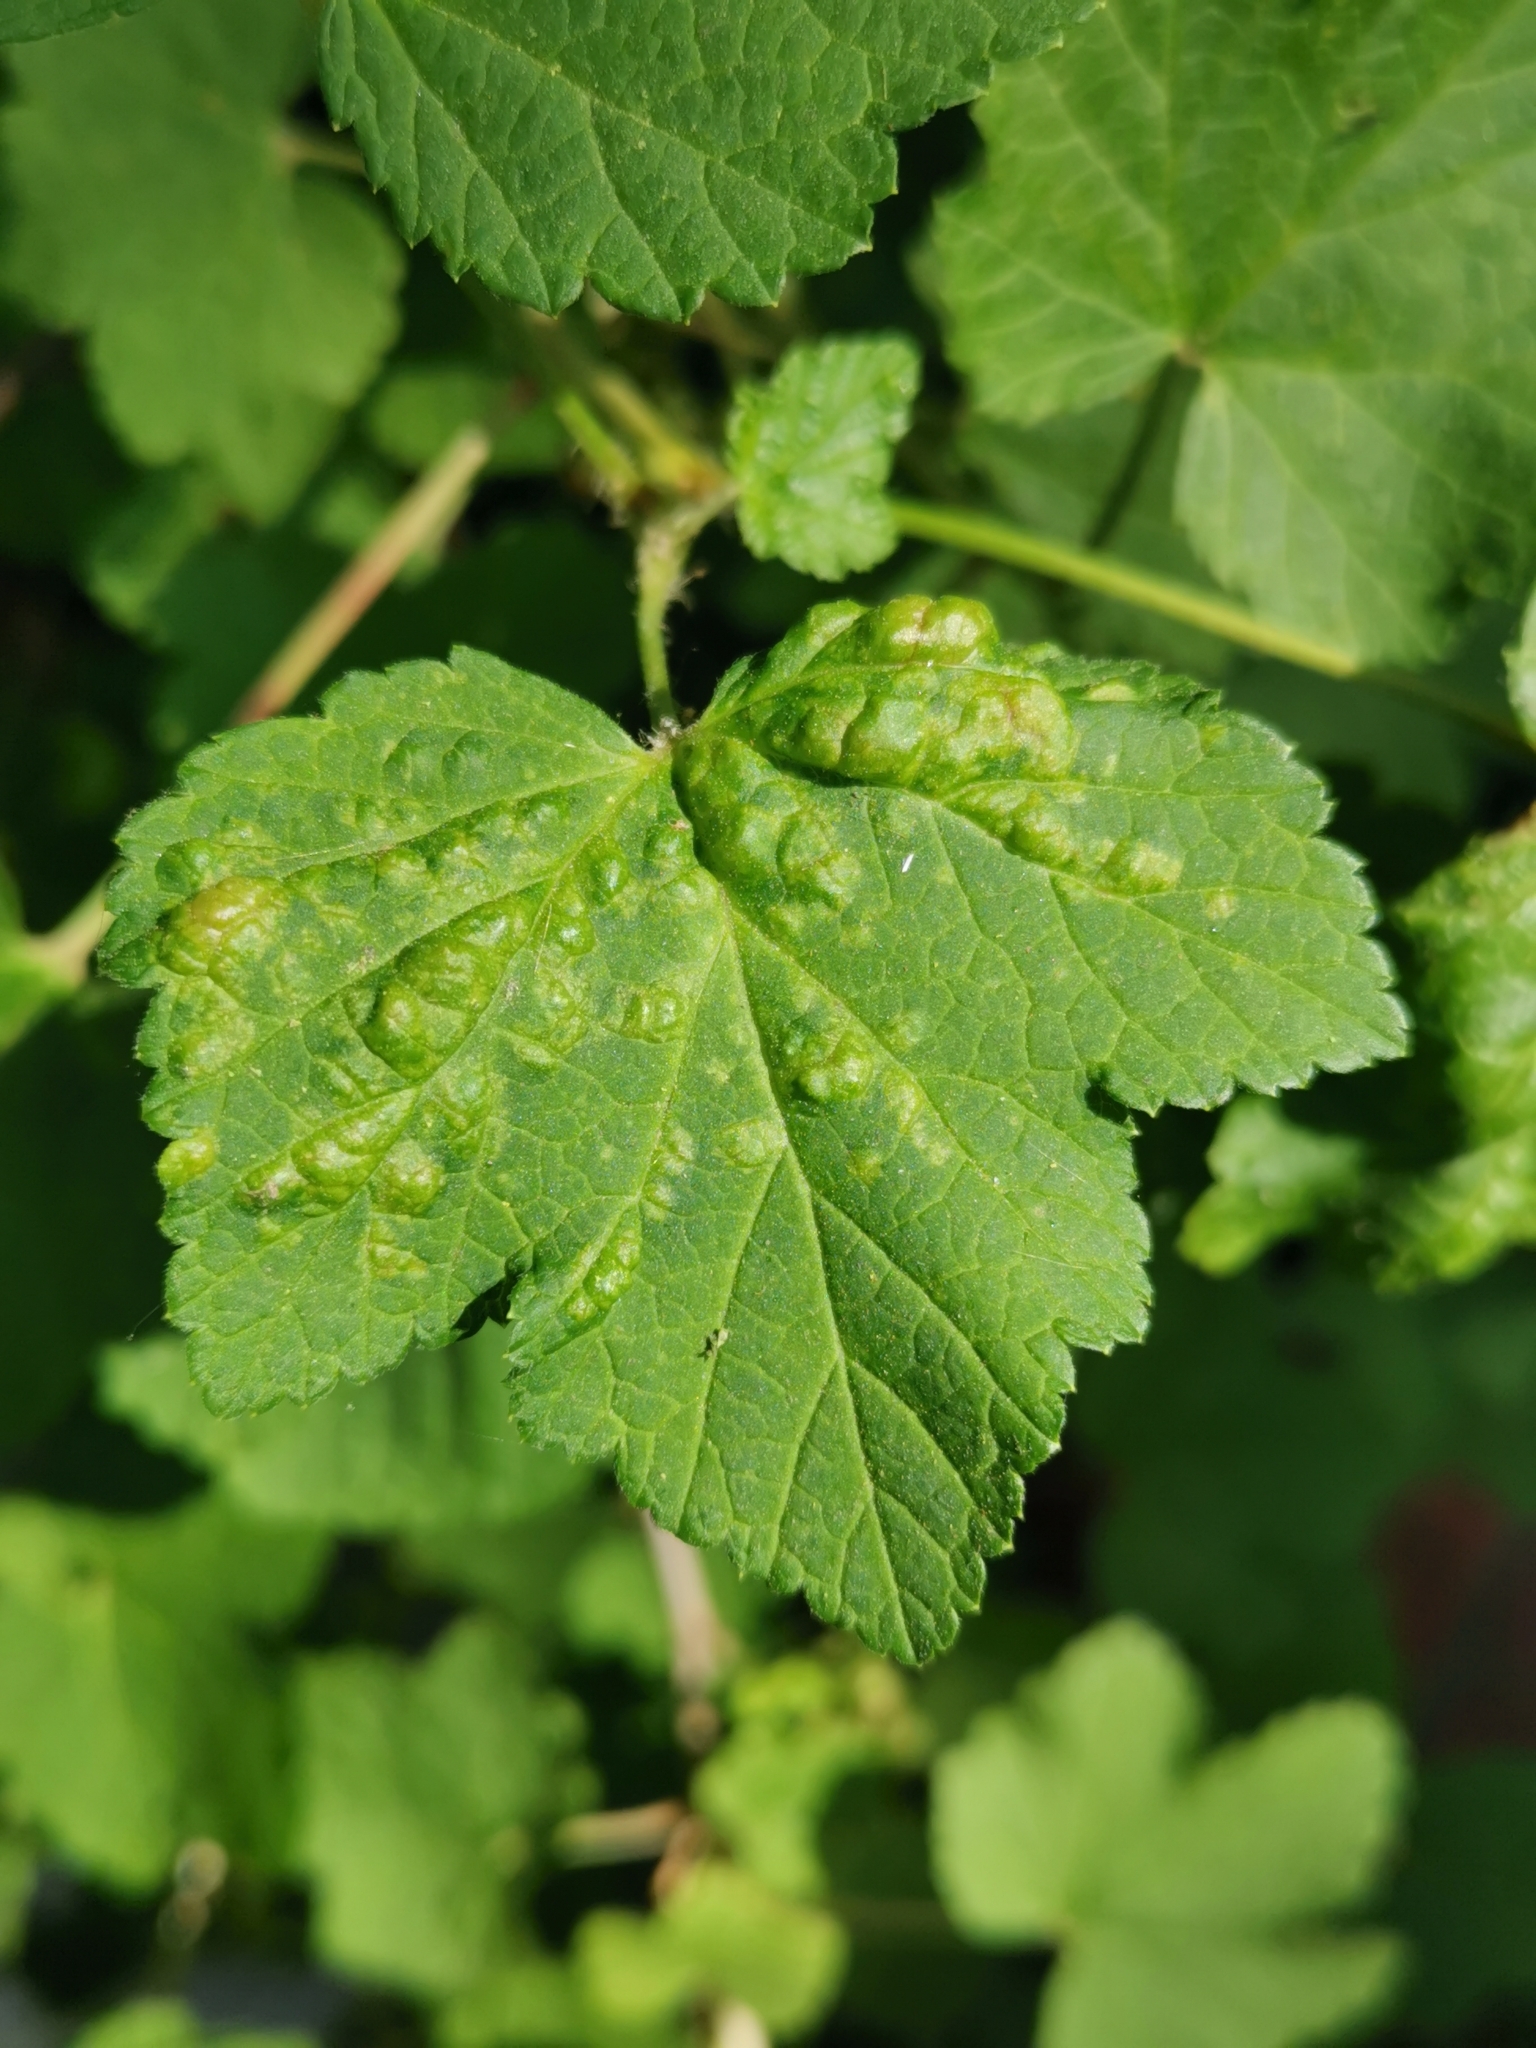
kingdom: Animalia
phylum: Arthropoda
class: Insecta
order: Hemiptera
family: Aphididae
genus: Cryptomyzus
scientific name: Cryptomyzus ribis
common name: Currant aphid
